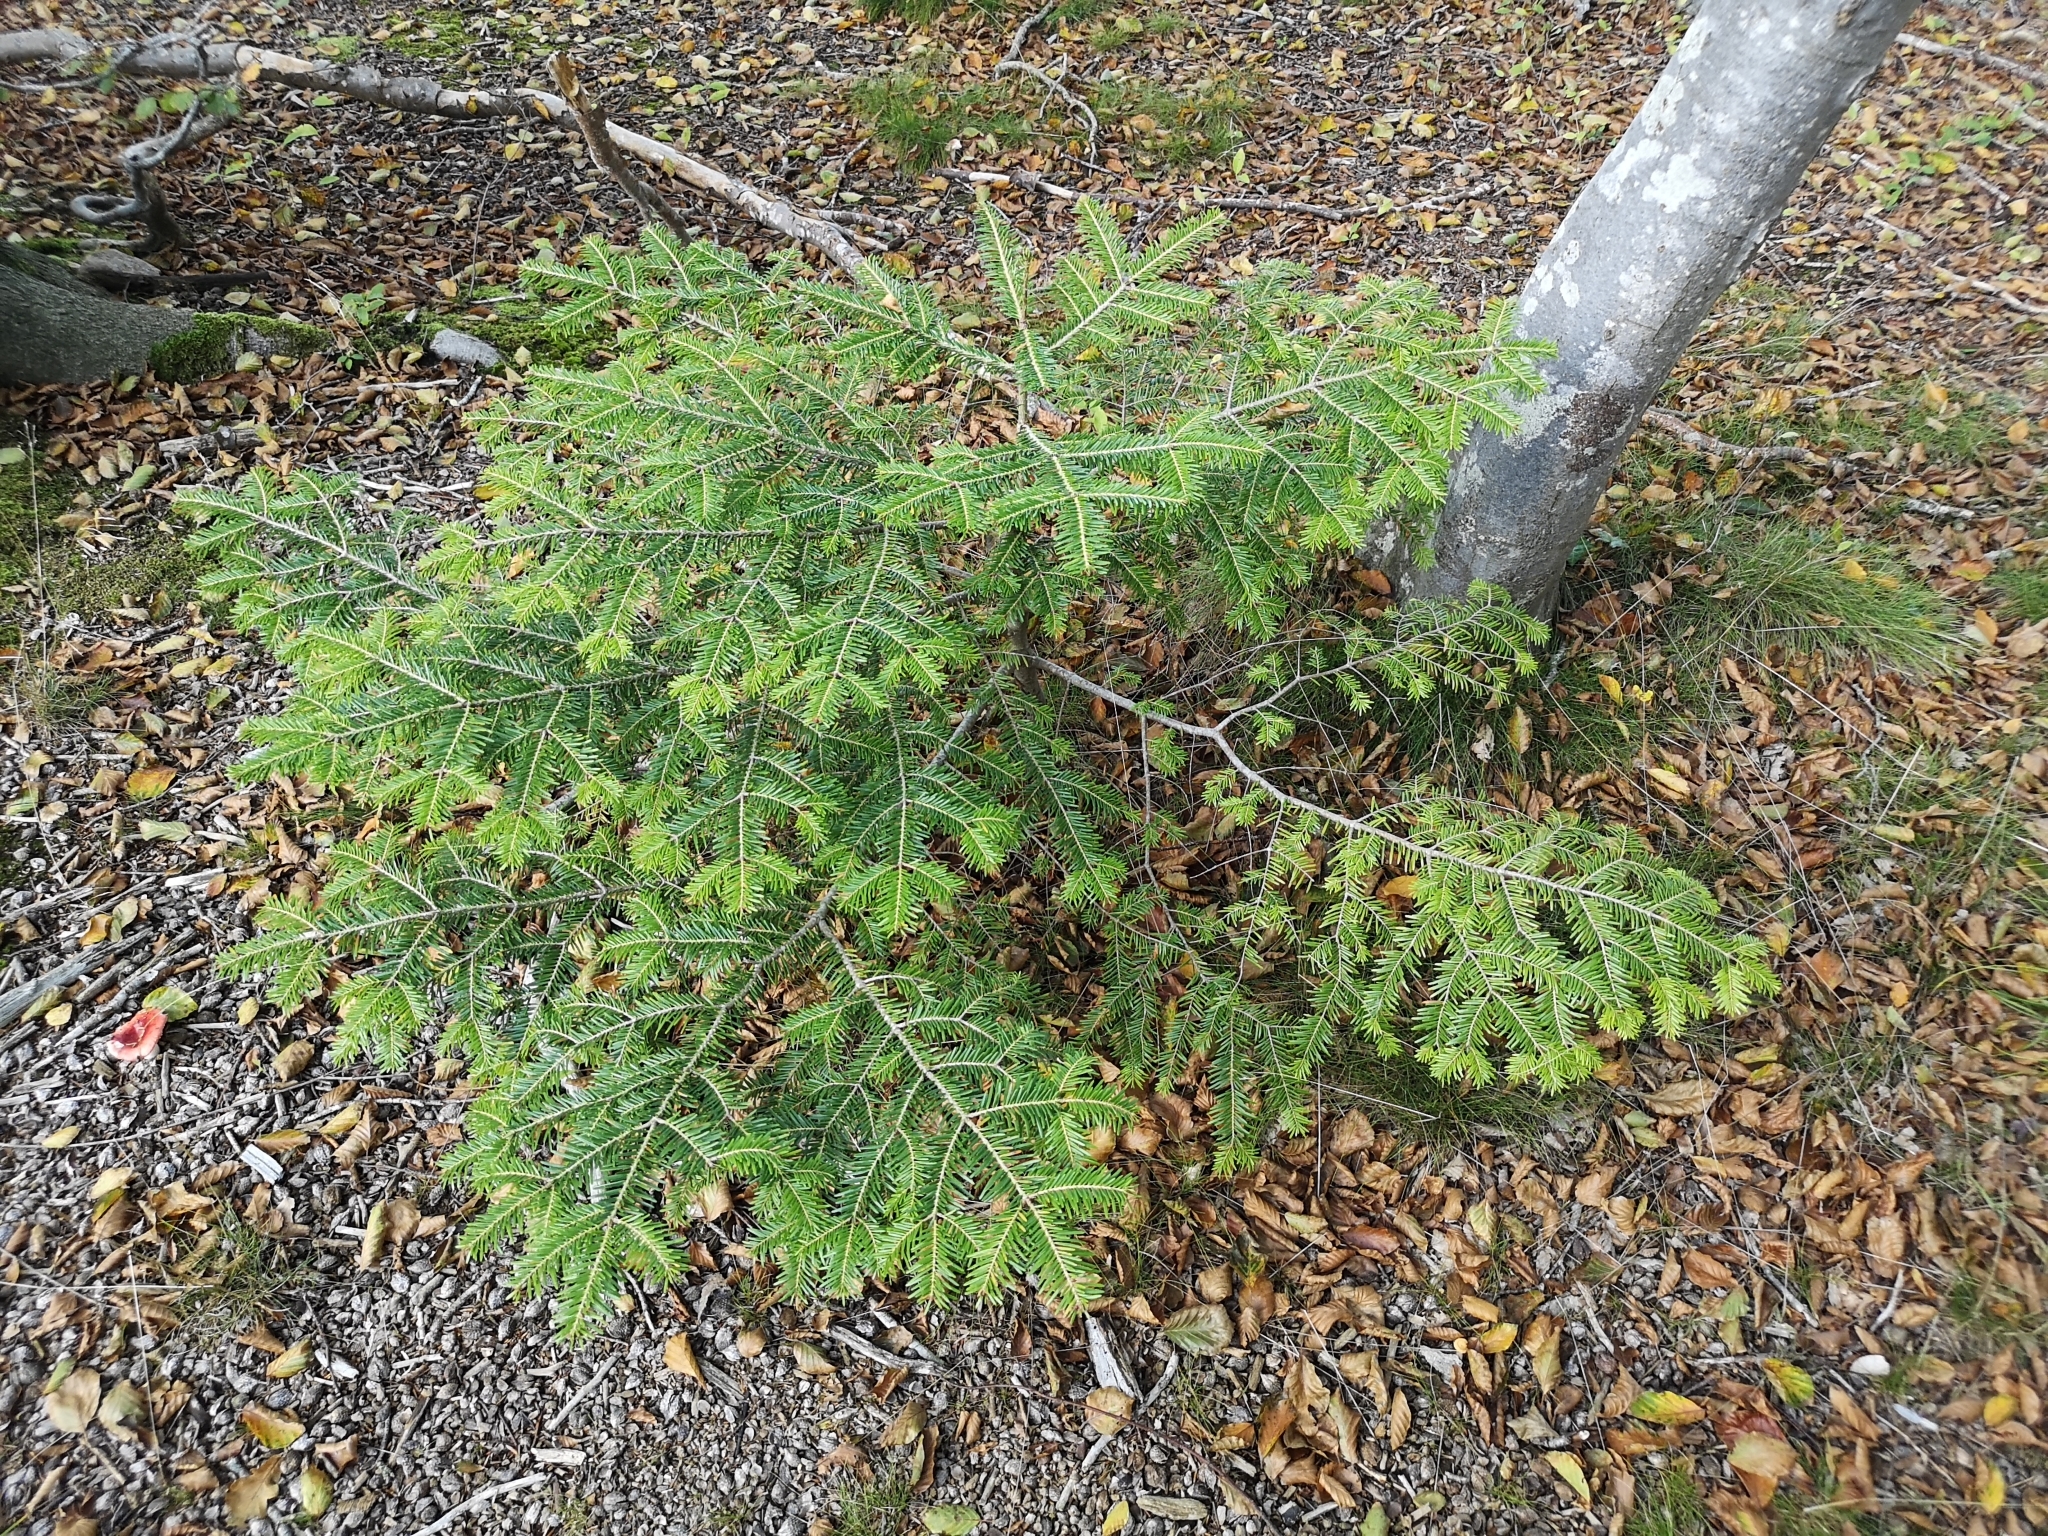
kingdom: Plantae
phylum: Tracheophyta
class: Pinopsida
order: Pinales
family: Pinaceae
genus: Abies
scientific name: Abies alba
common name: Silver fir
